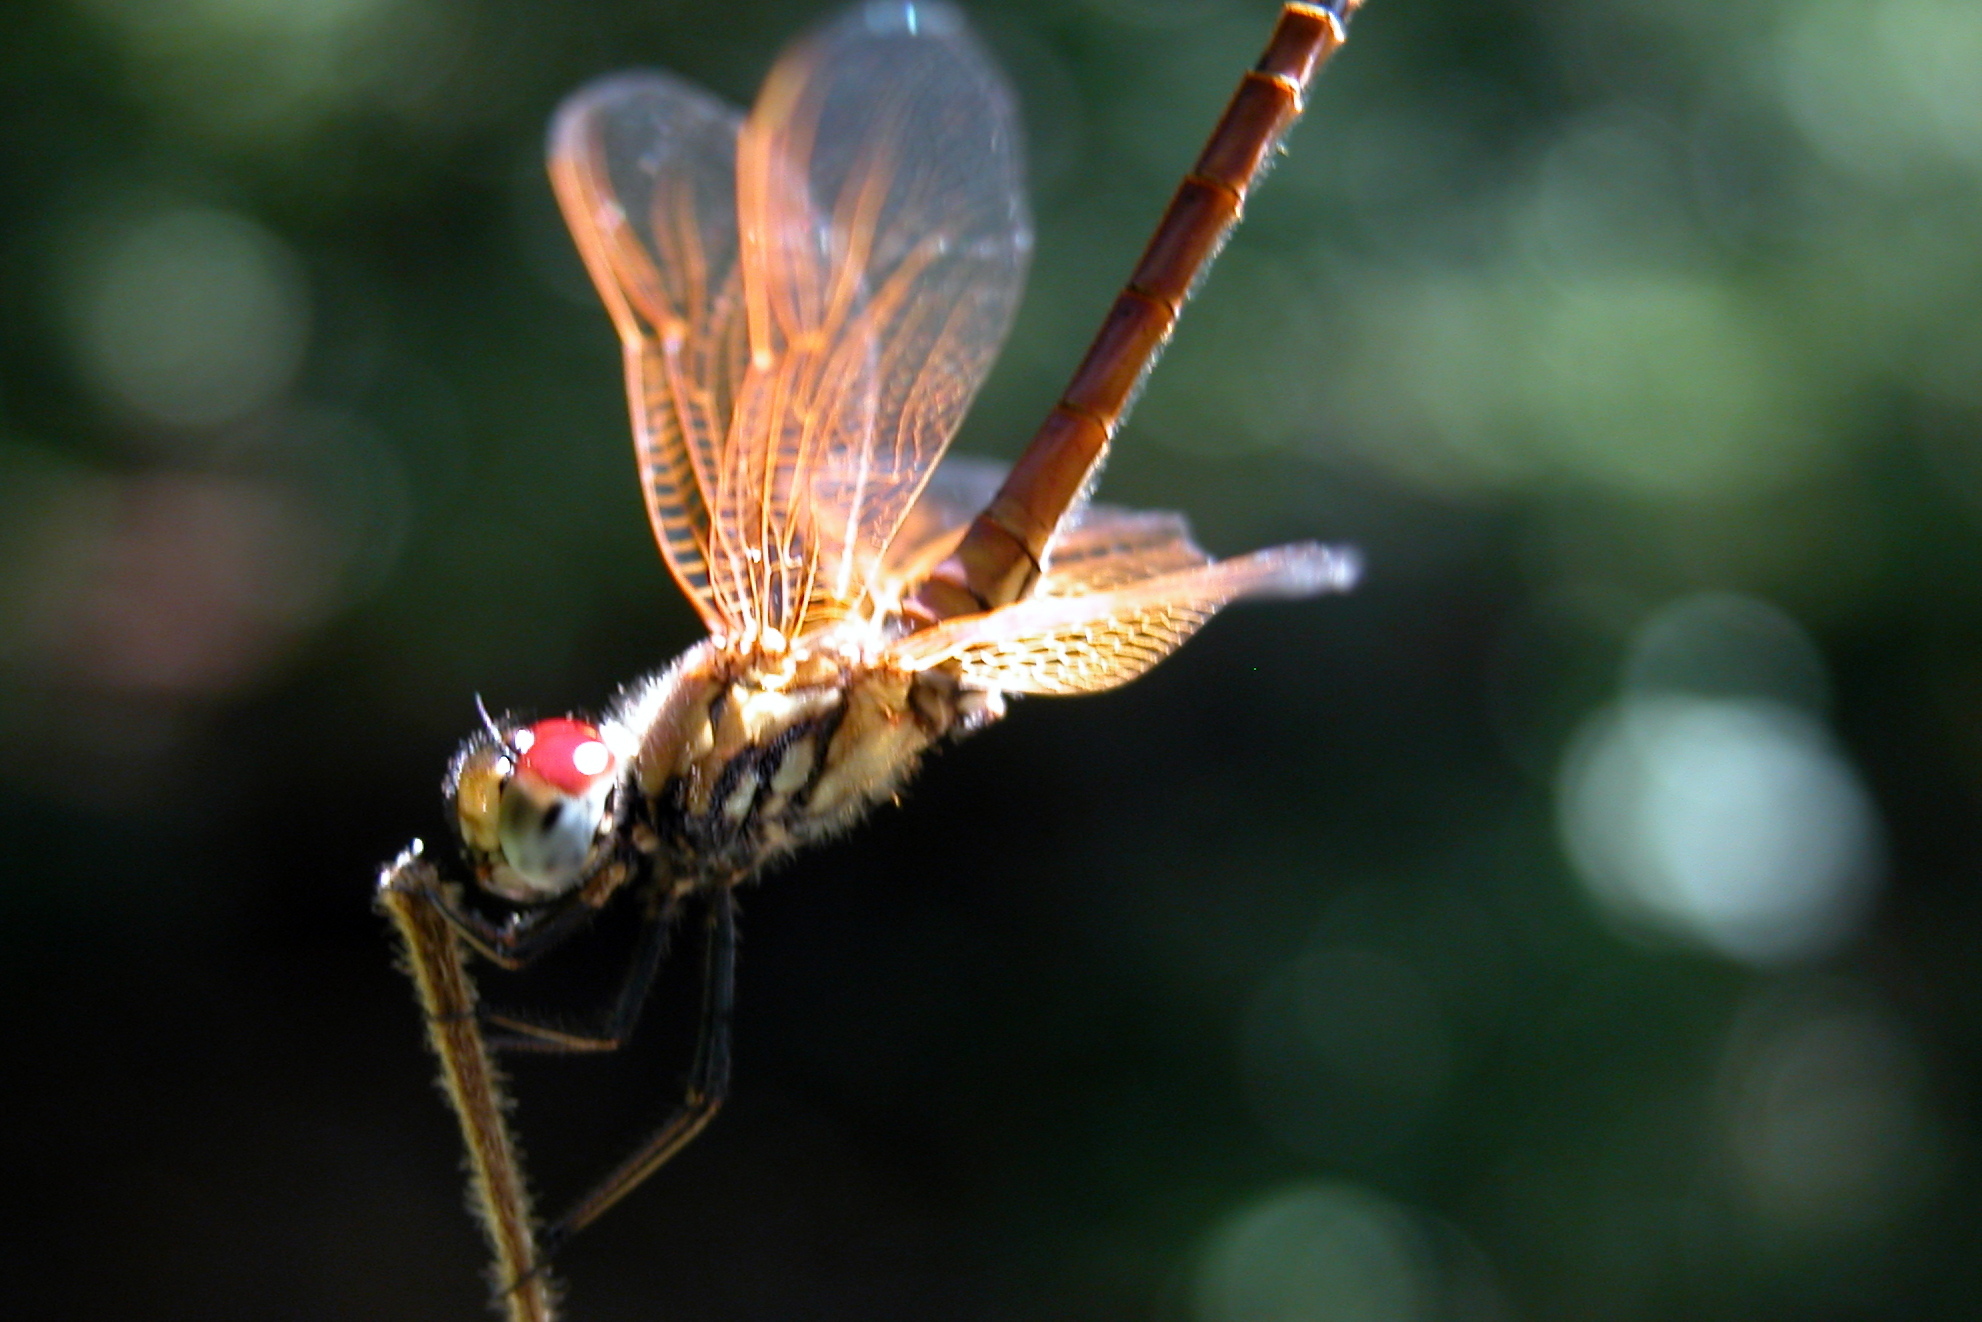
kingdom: Animalia
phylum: Arthropoda
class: Insecta
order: Odonata
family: Libellulidae
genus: Trithemis
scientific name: Trithemis aurora
